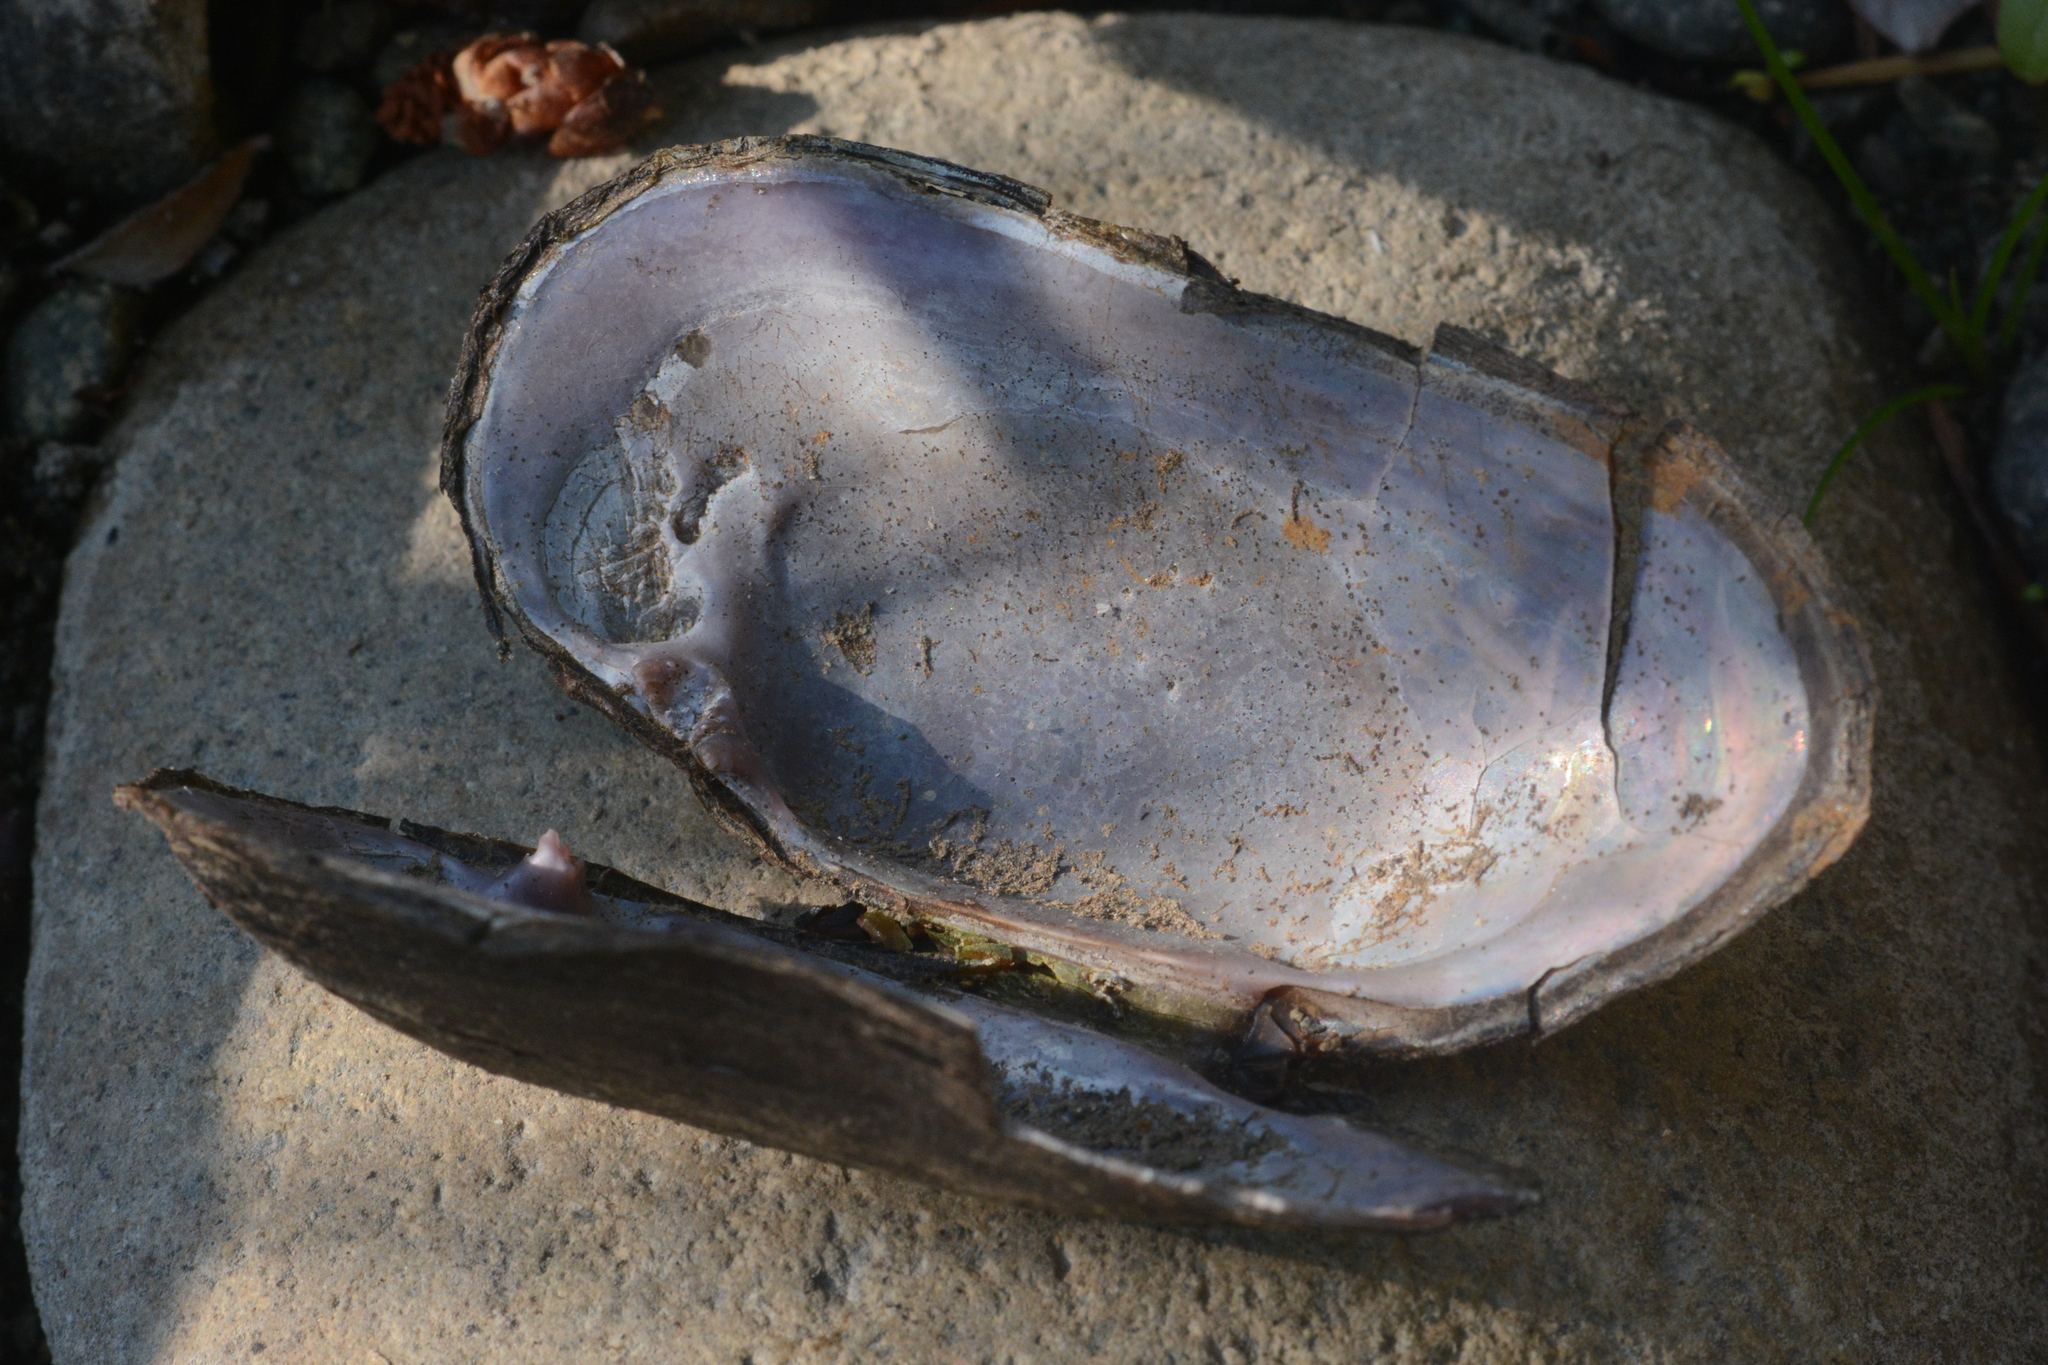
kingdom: Animalia
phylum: Mollusca
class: Bivalvia
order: Unionida
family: Margaritiferidae
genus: Margaritifera
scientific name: Margaritifera falcata
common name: Western pearlshell
